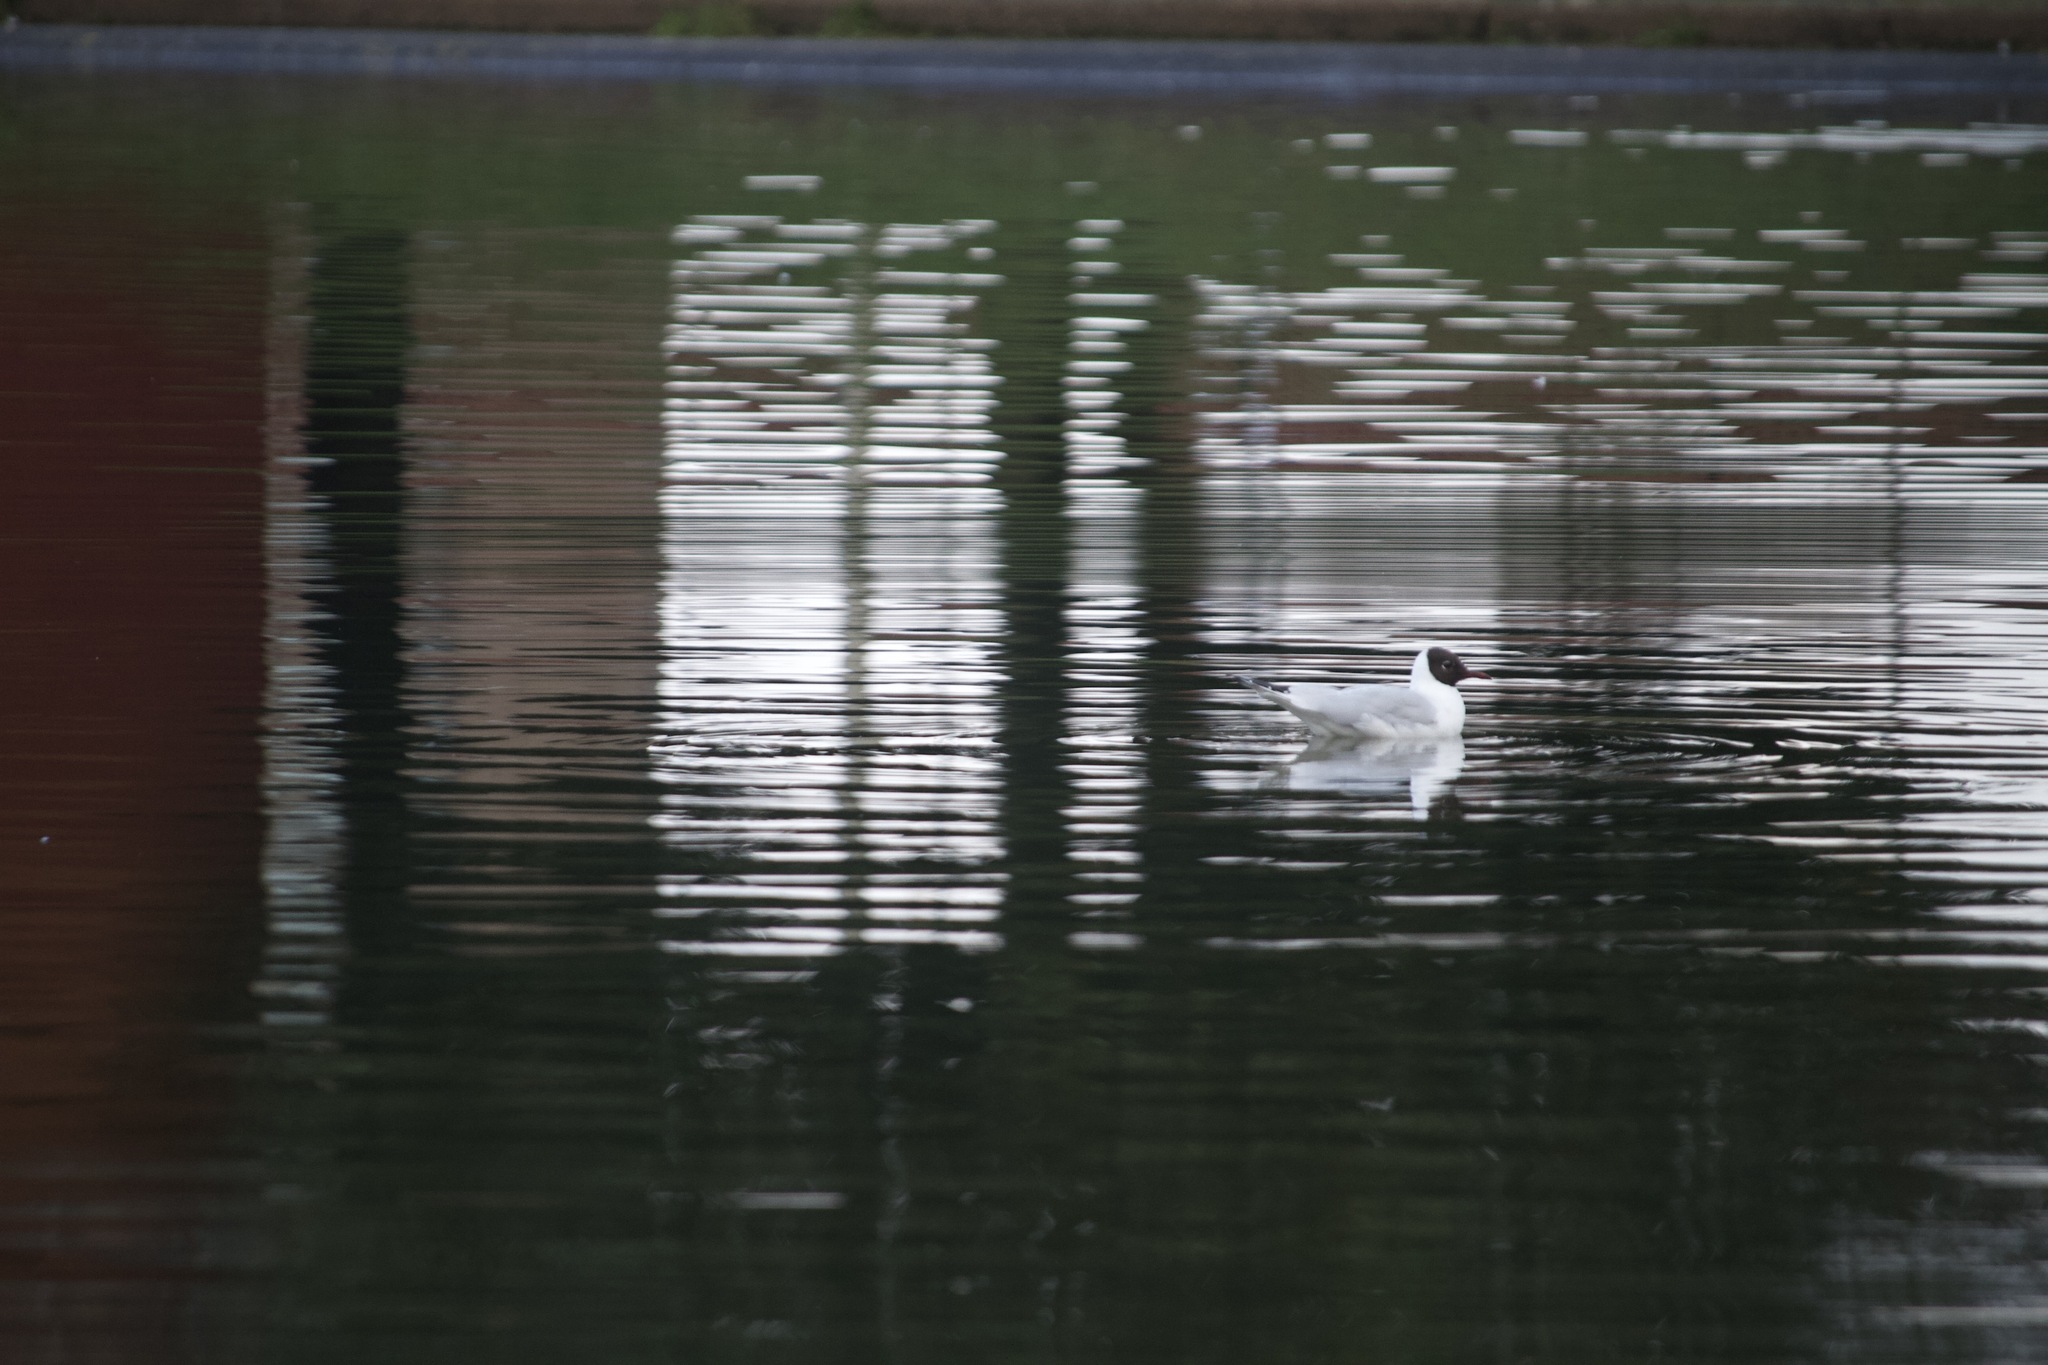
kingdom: Animalia
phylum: Chordata
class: Aves
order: Charadriiformes
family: Laridae
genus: Chroicocephalus
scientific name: Chroicocephalus ridibundus
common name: Black-headed gull
